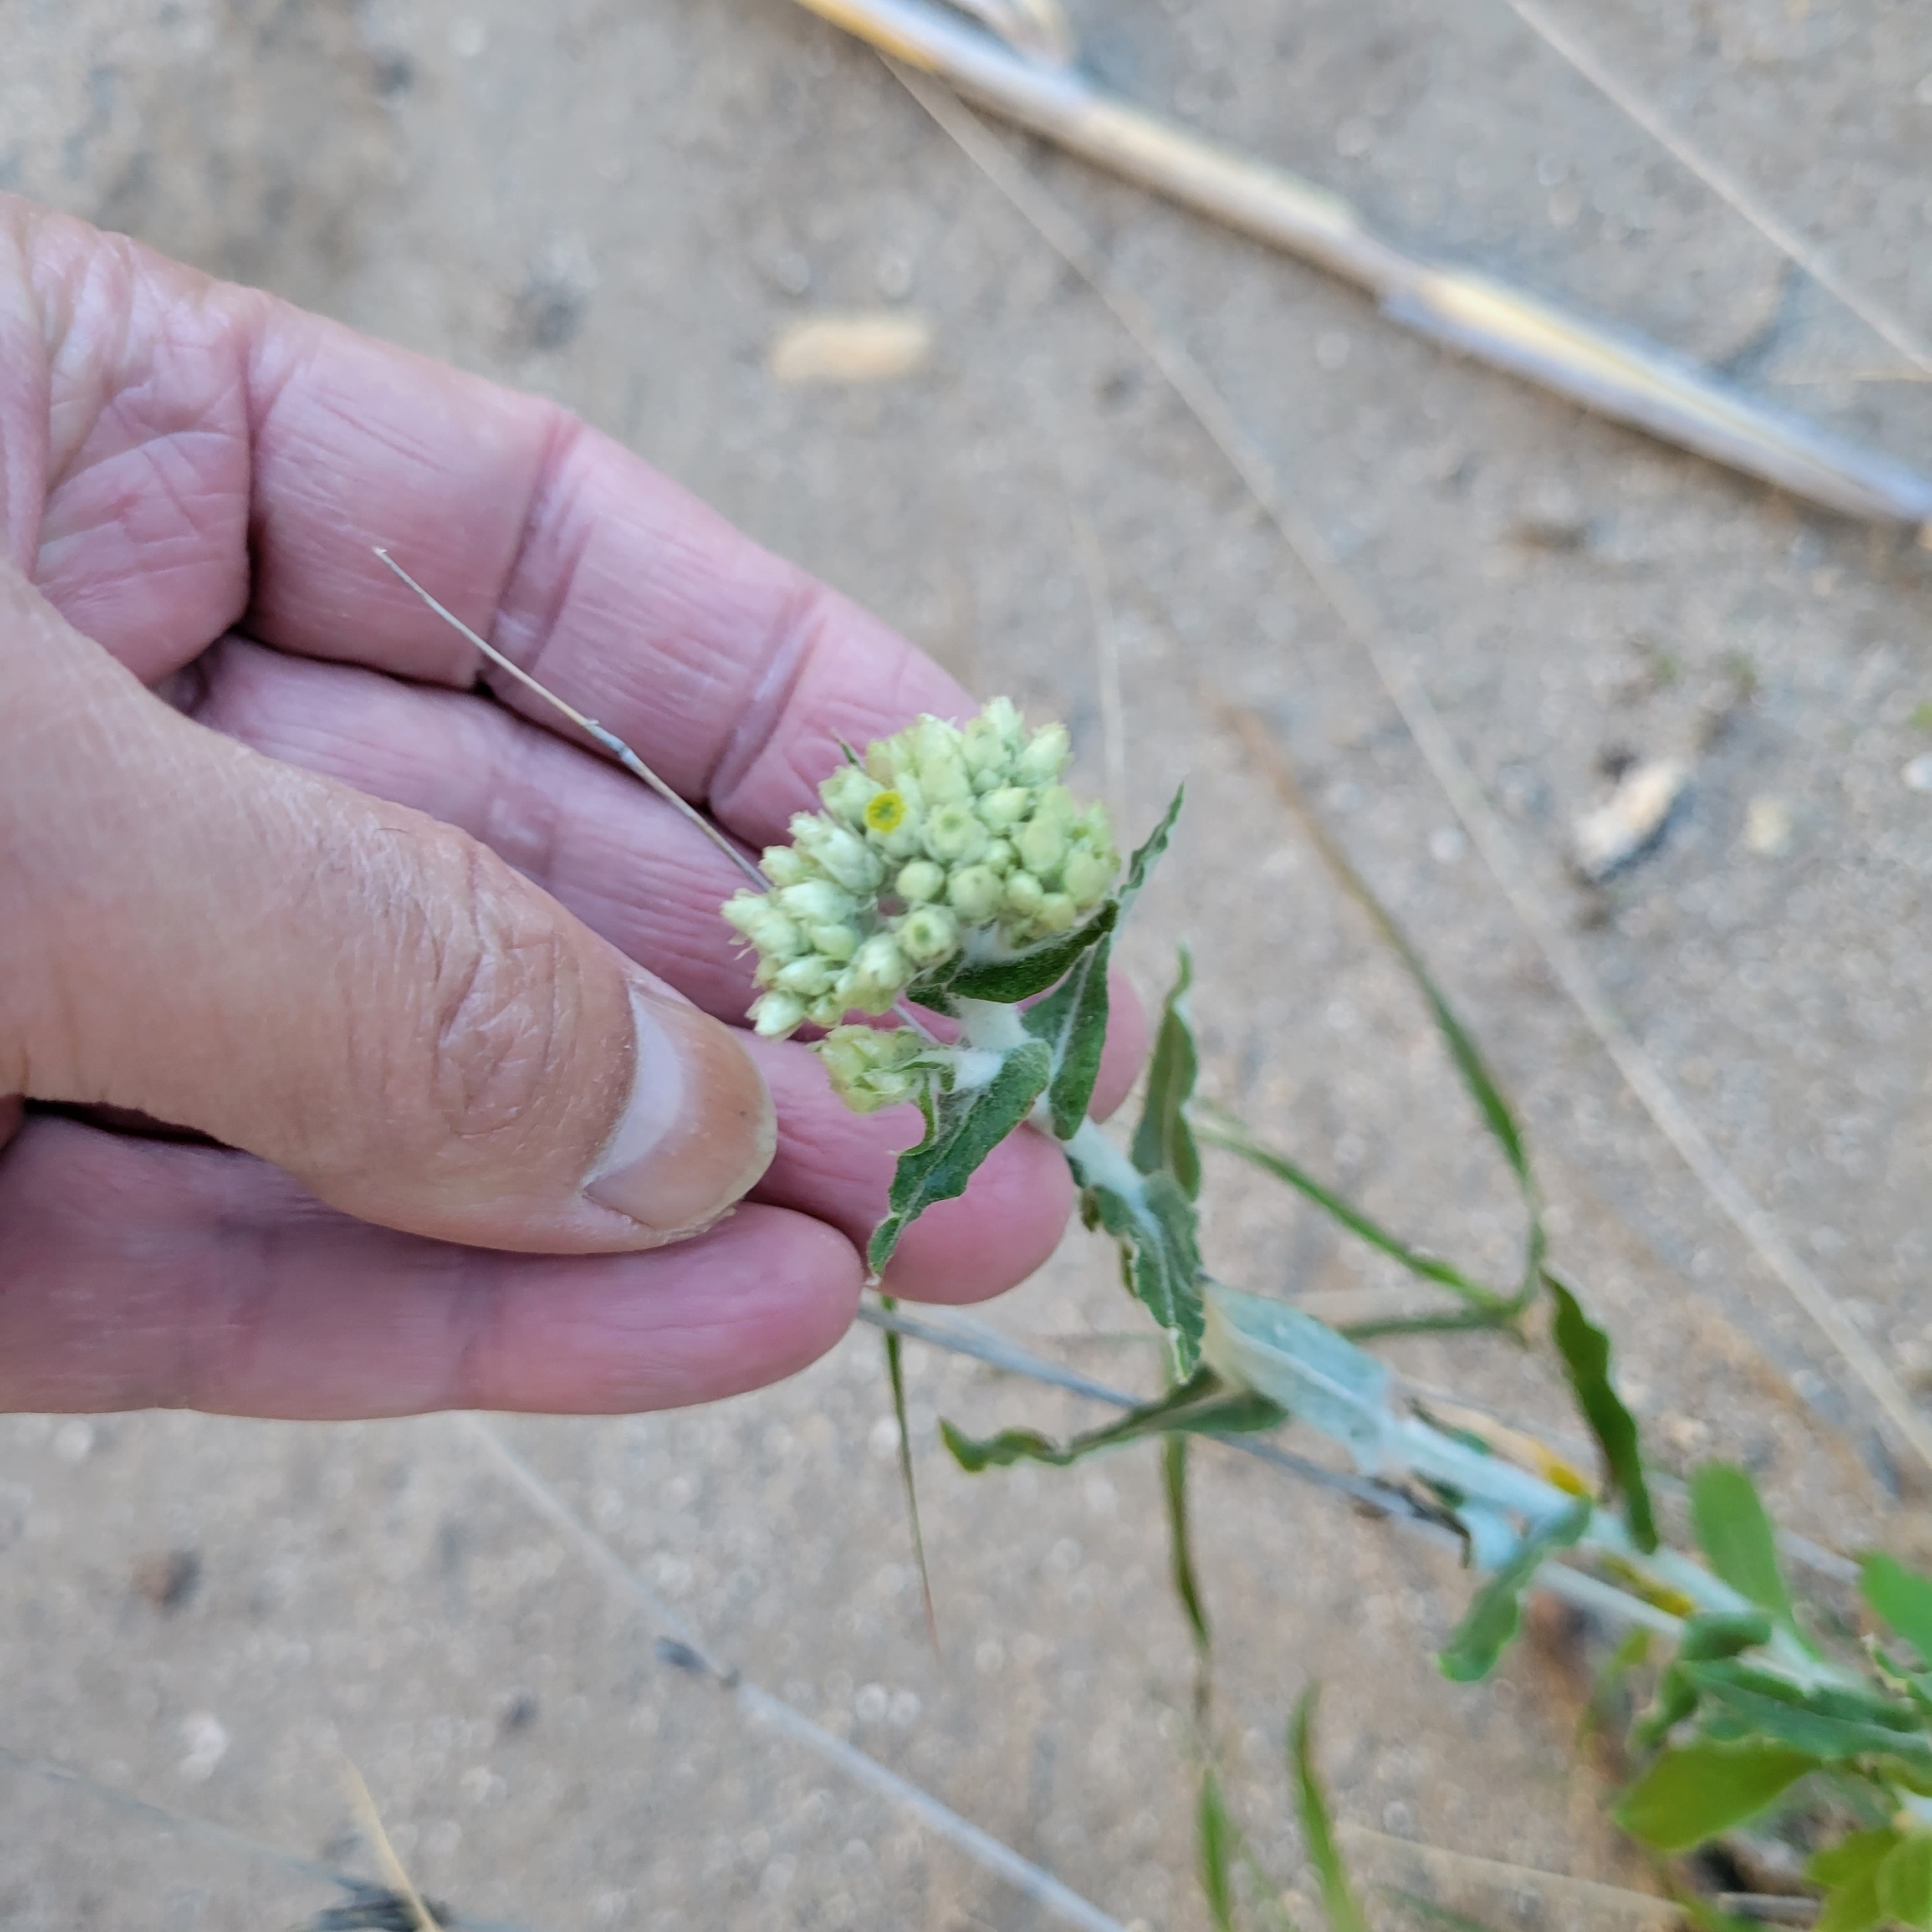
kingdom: Plantae
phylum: Tracheophyta
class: Magnoliopsida
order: Asterales
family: Asteraceae
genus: Pseudognaphalium
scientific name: Pseudognaphalium biolettii
